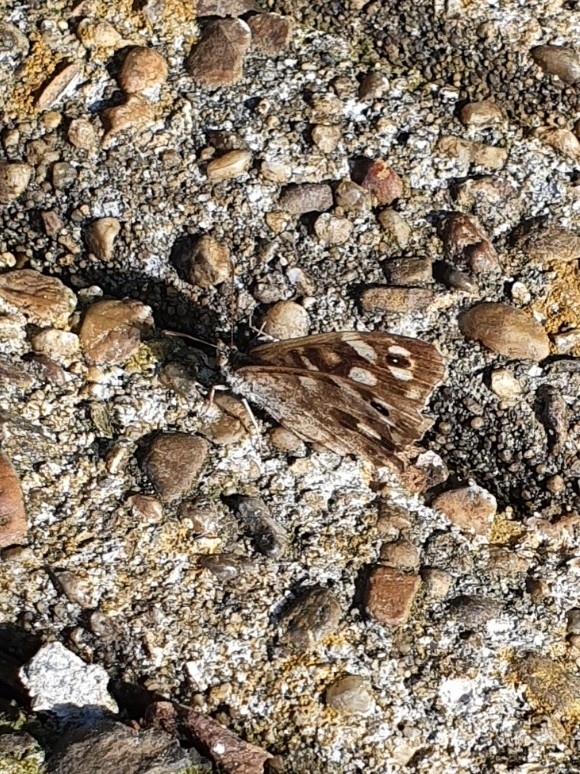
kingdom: Animalia
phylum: Arthropoda
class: Insecta
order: Lepidoptera
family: Nymphalidae
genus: Pararge
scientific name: Pararge aegeria
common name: Speckled wood
